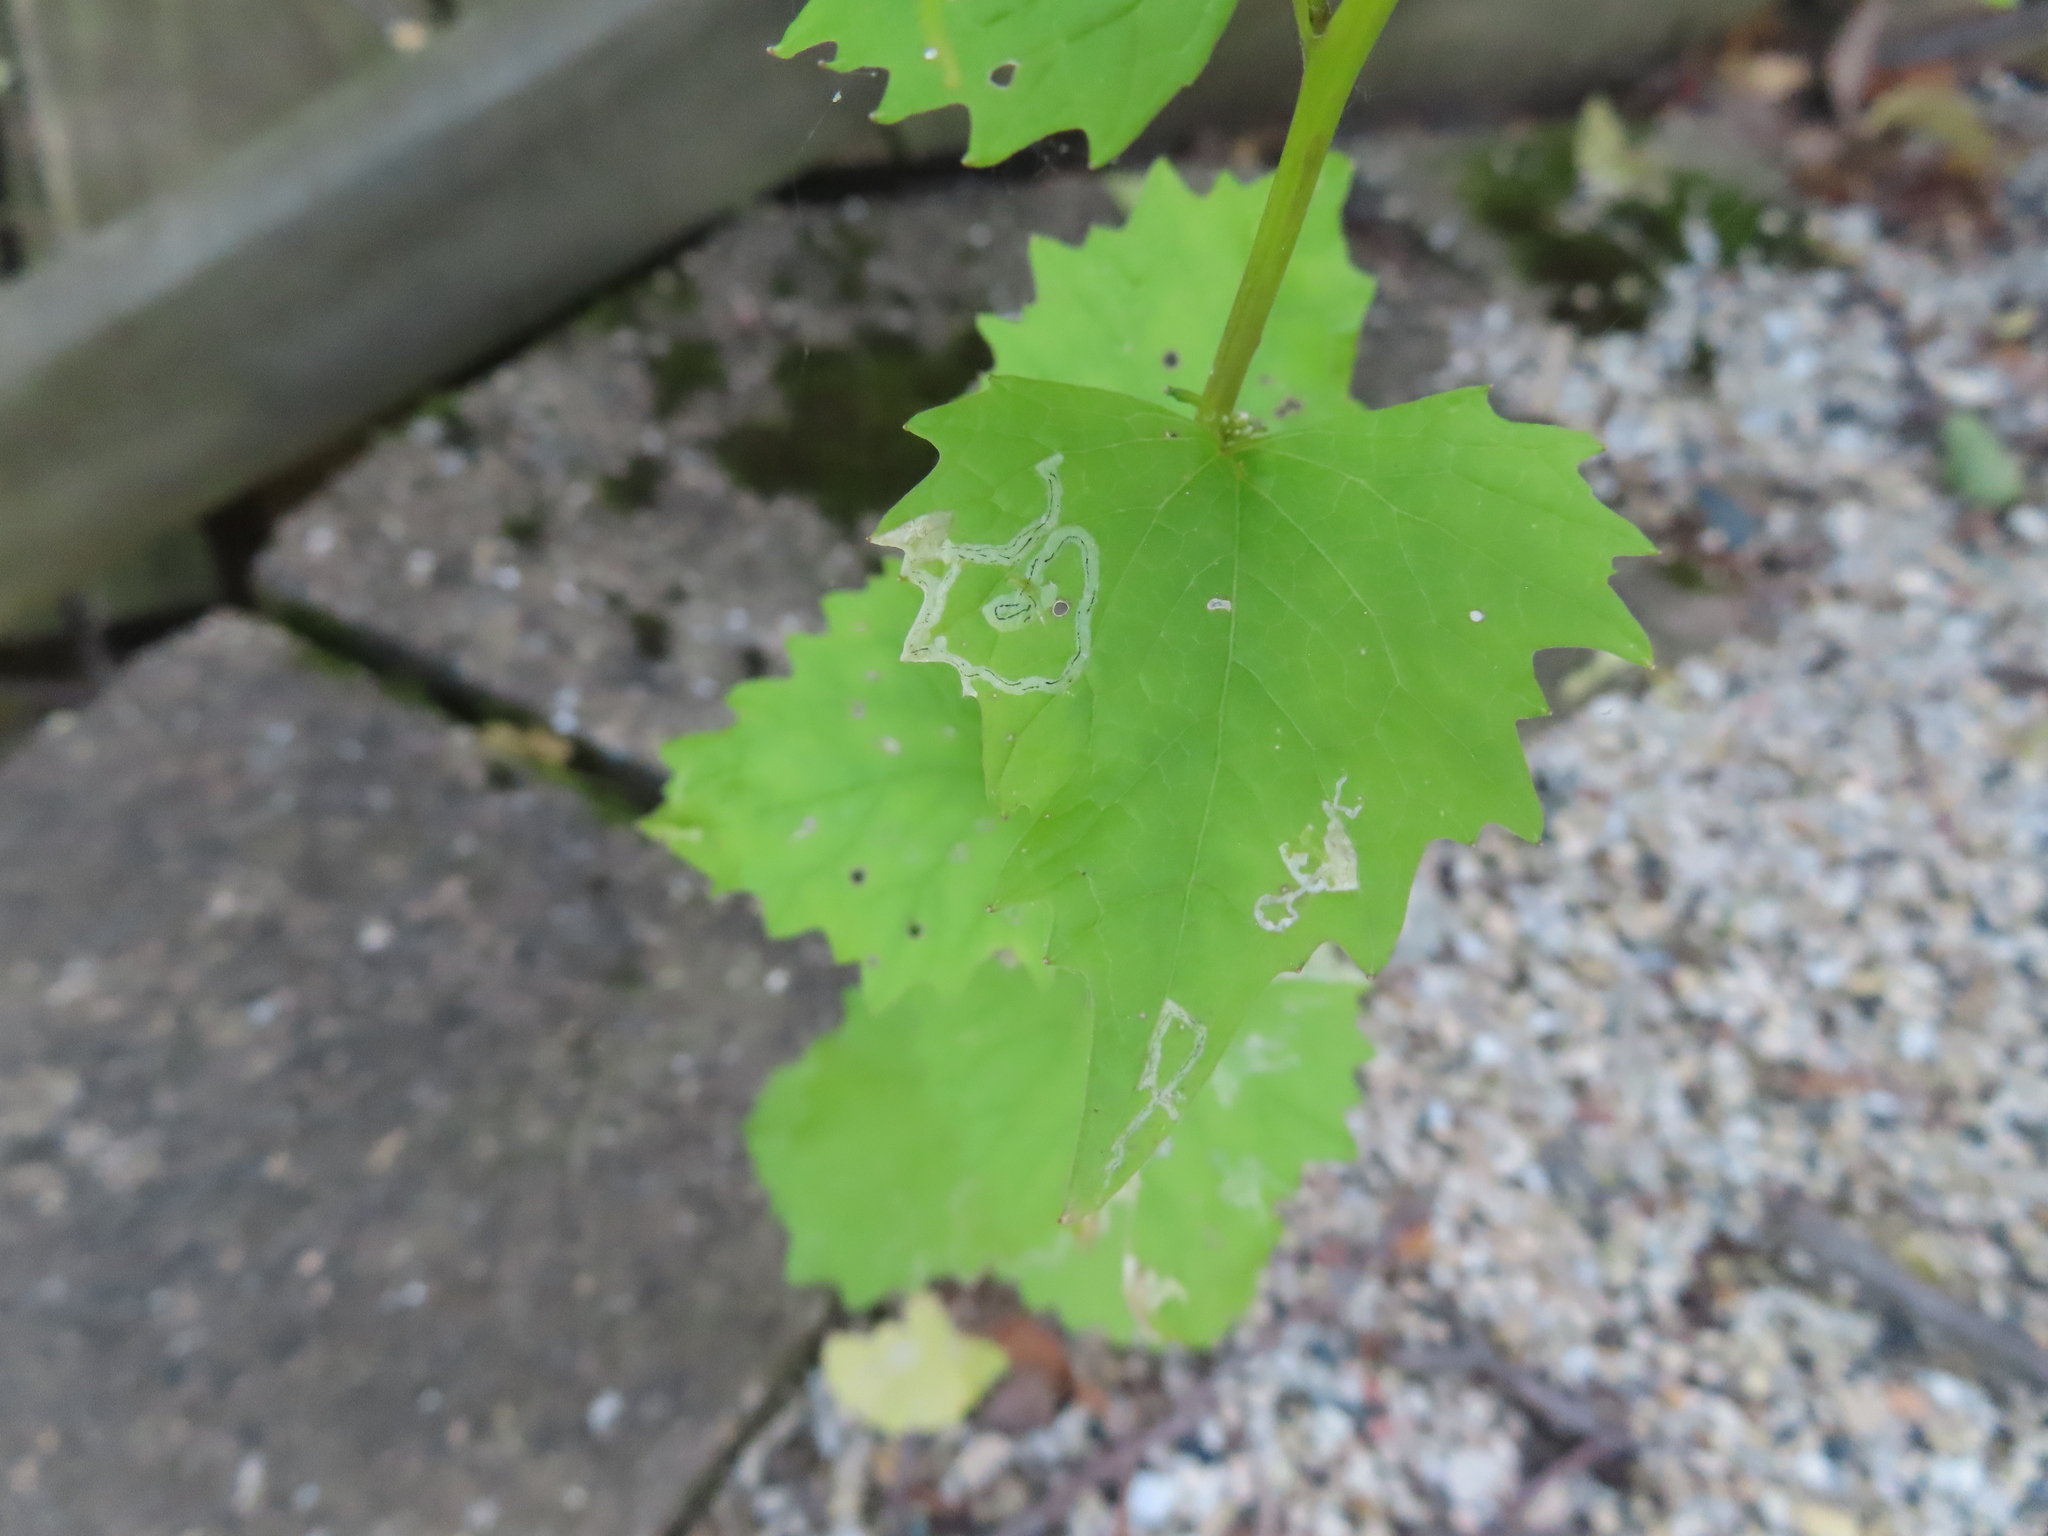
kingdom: Plantae
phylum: Tracheophyta
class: Magnoliopsida
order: Brassicales
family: Brassicaceae
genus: Alliaria
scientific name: Alliaria petiolata
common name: Garlic mustard
